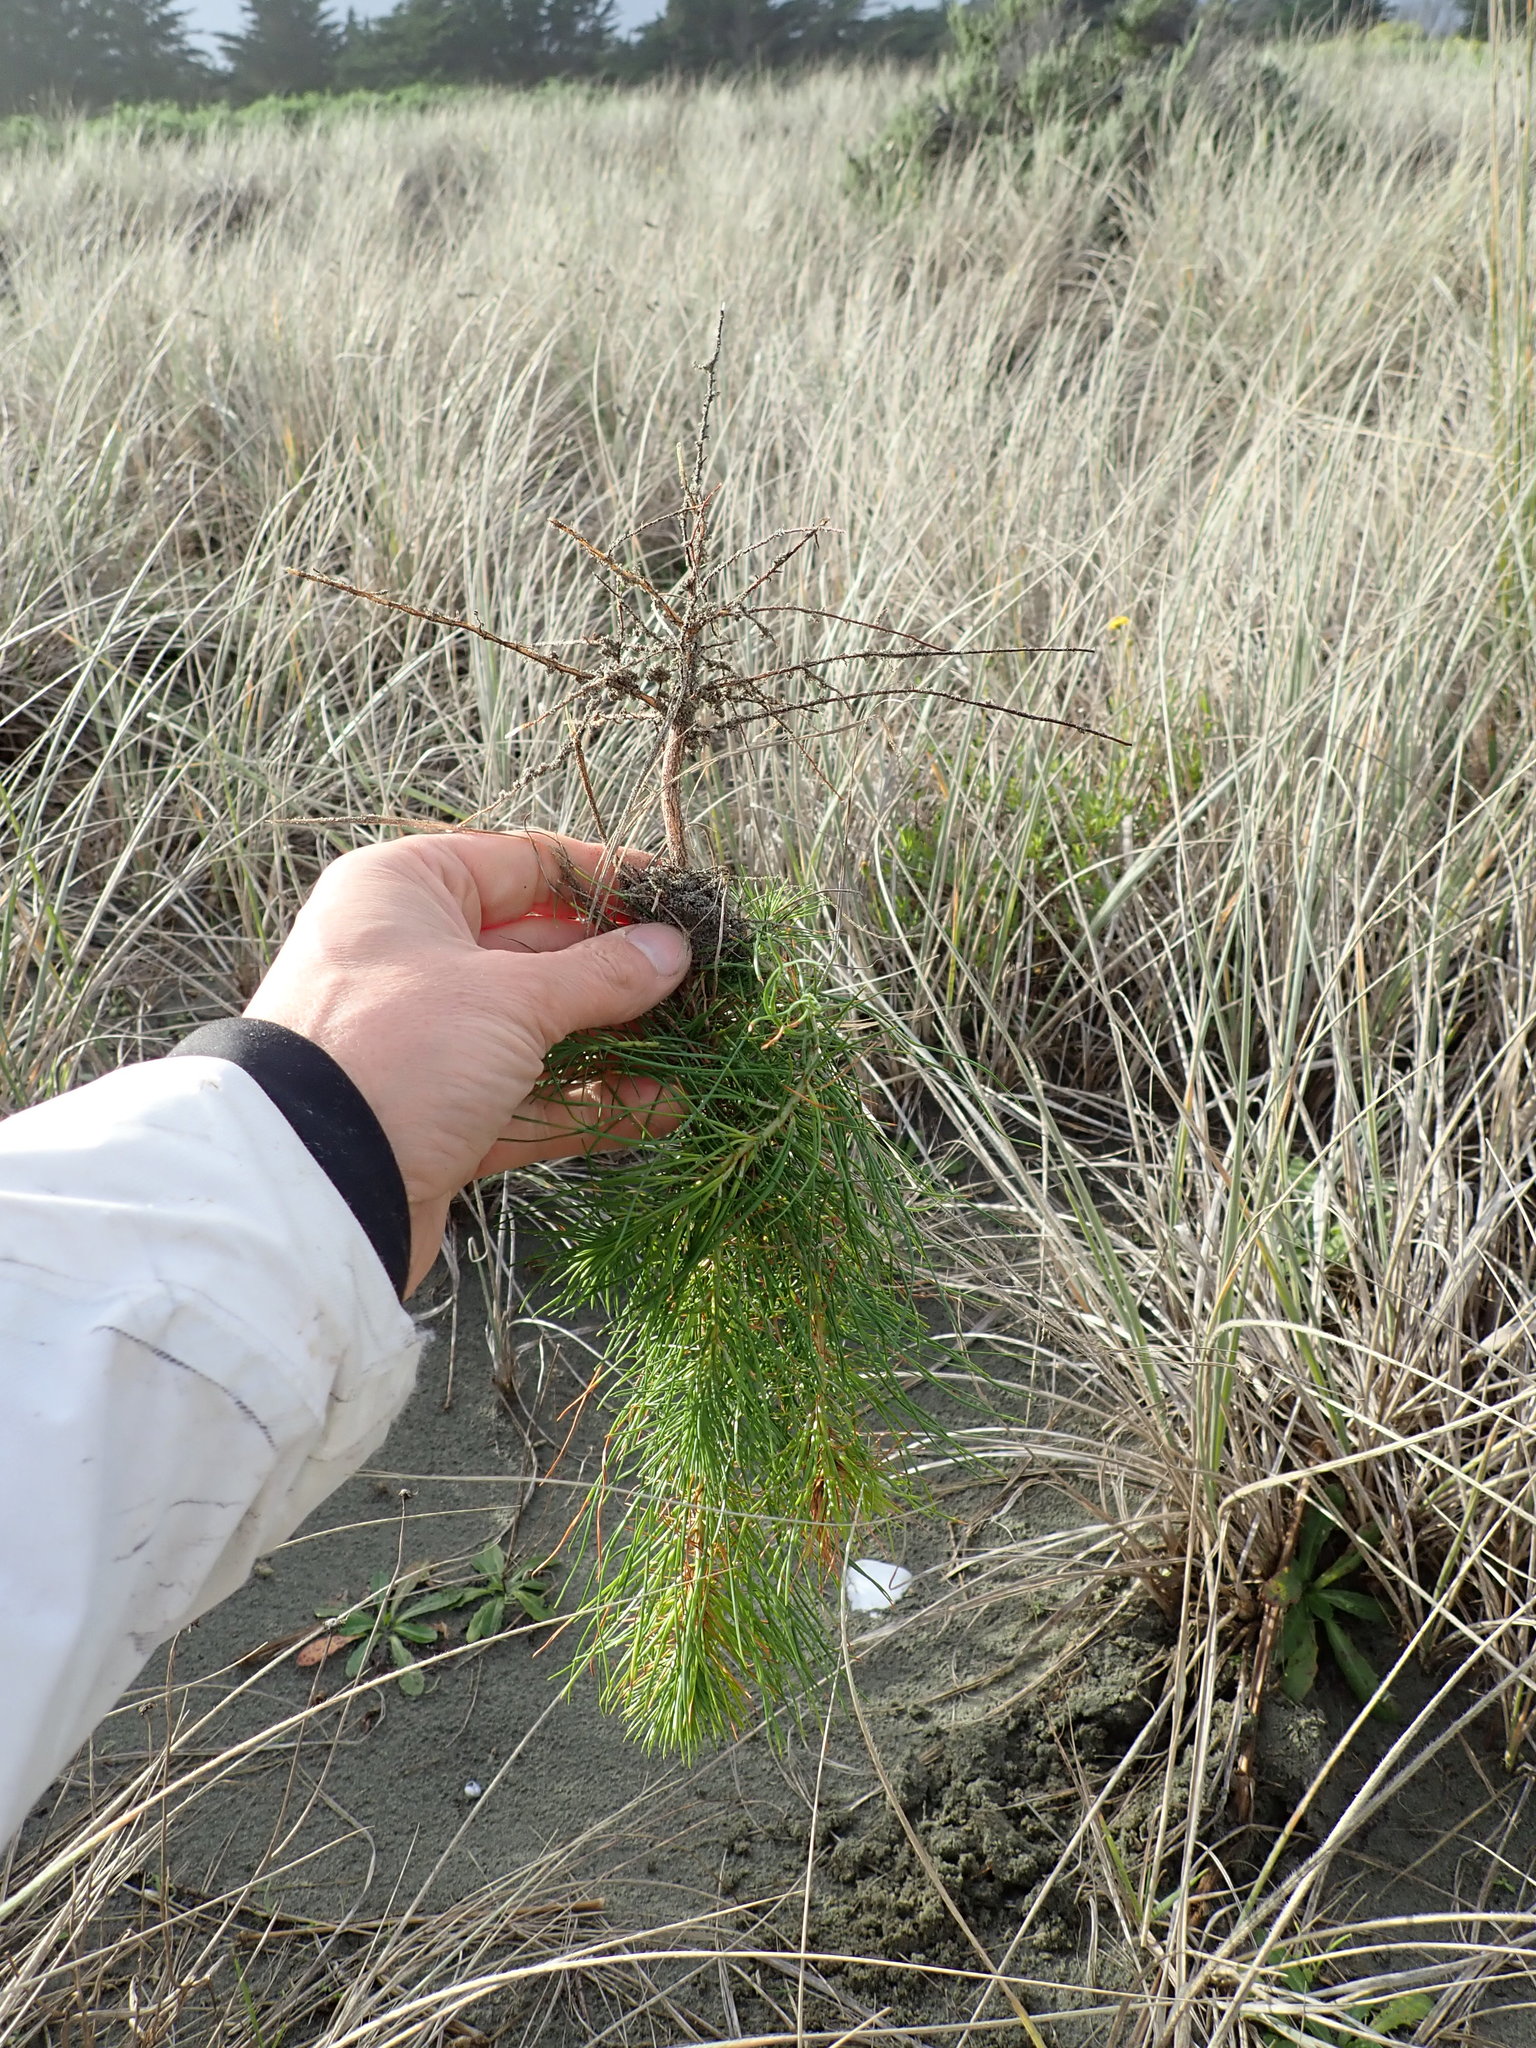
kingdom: Plantae
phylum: Tracheophyta
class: Pinopsida
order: Pinales
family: Pinaceae
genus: Pinus
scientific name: Pinus radiata
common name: Monterey pine
